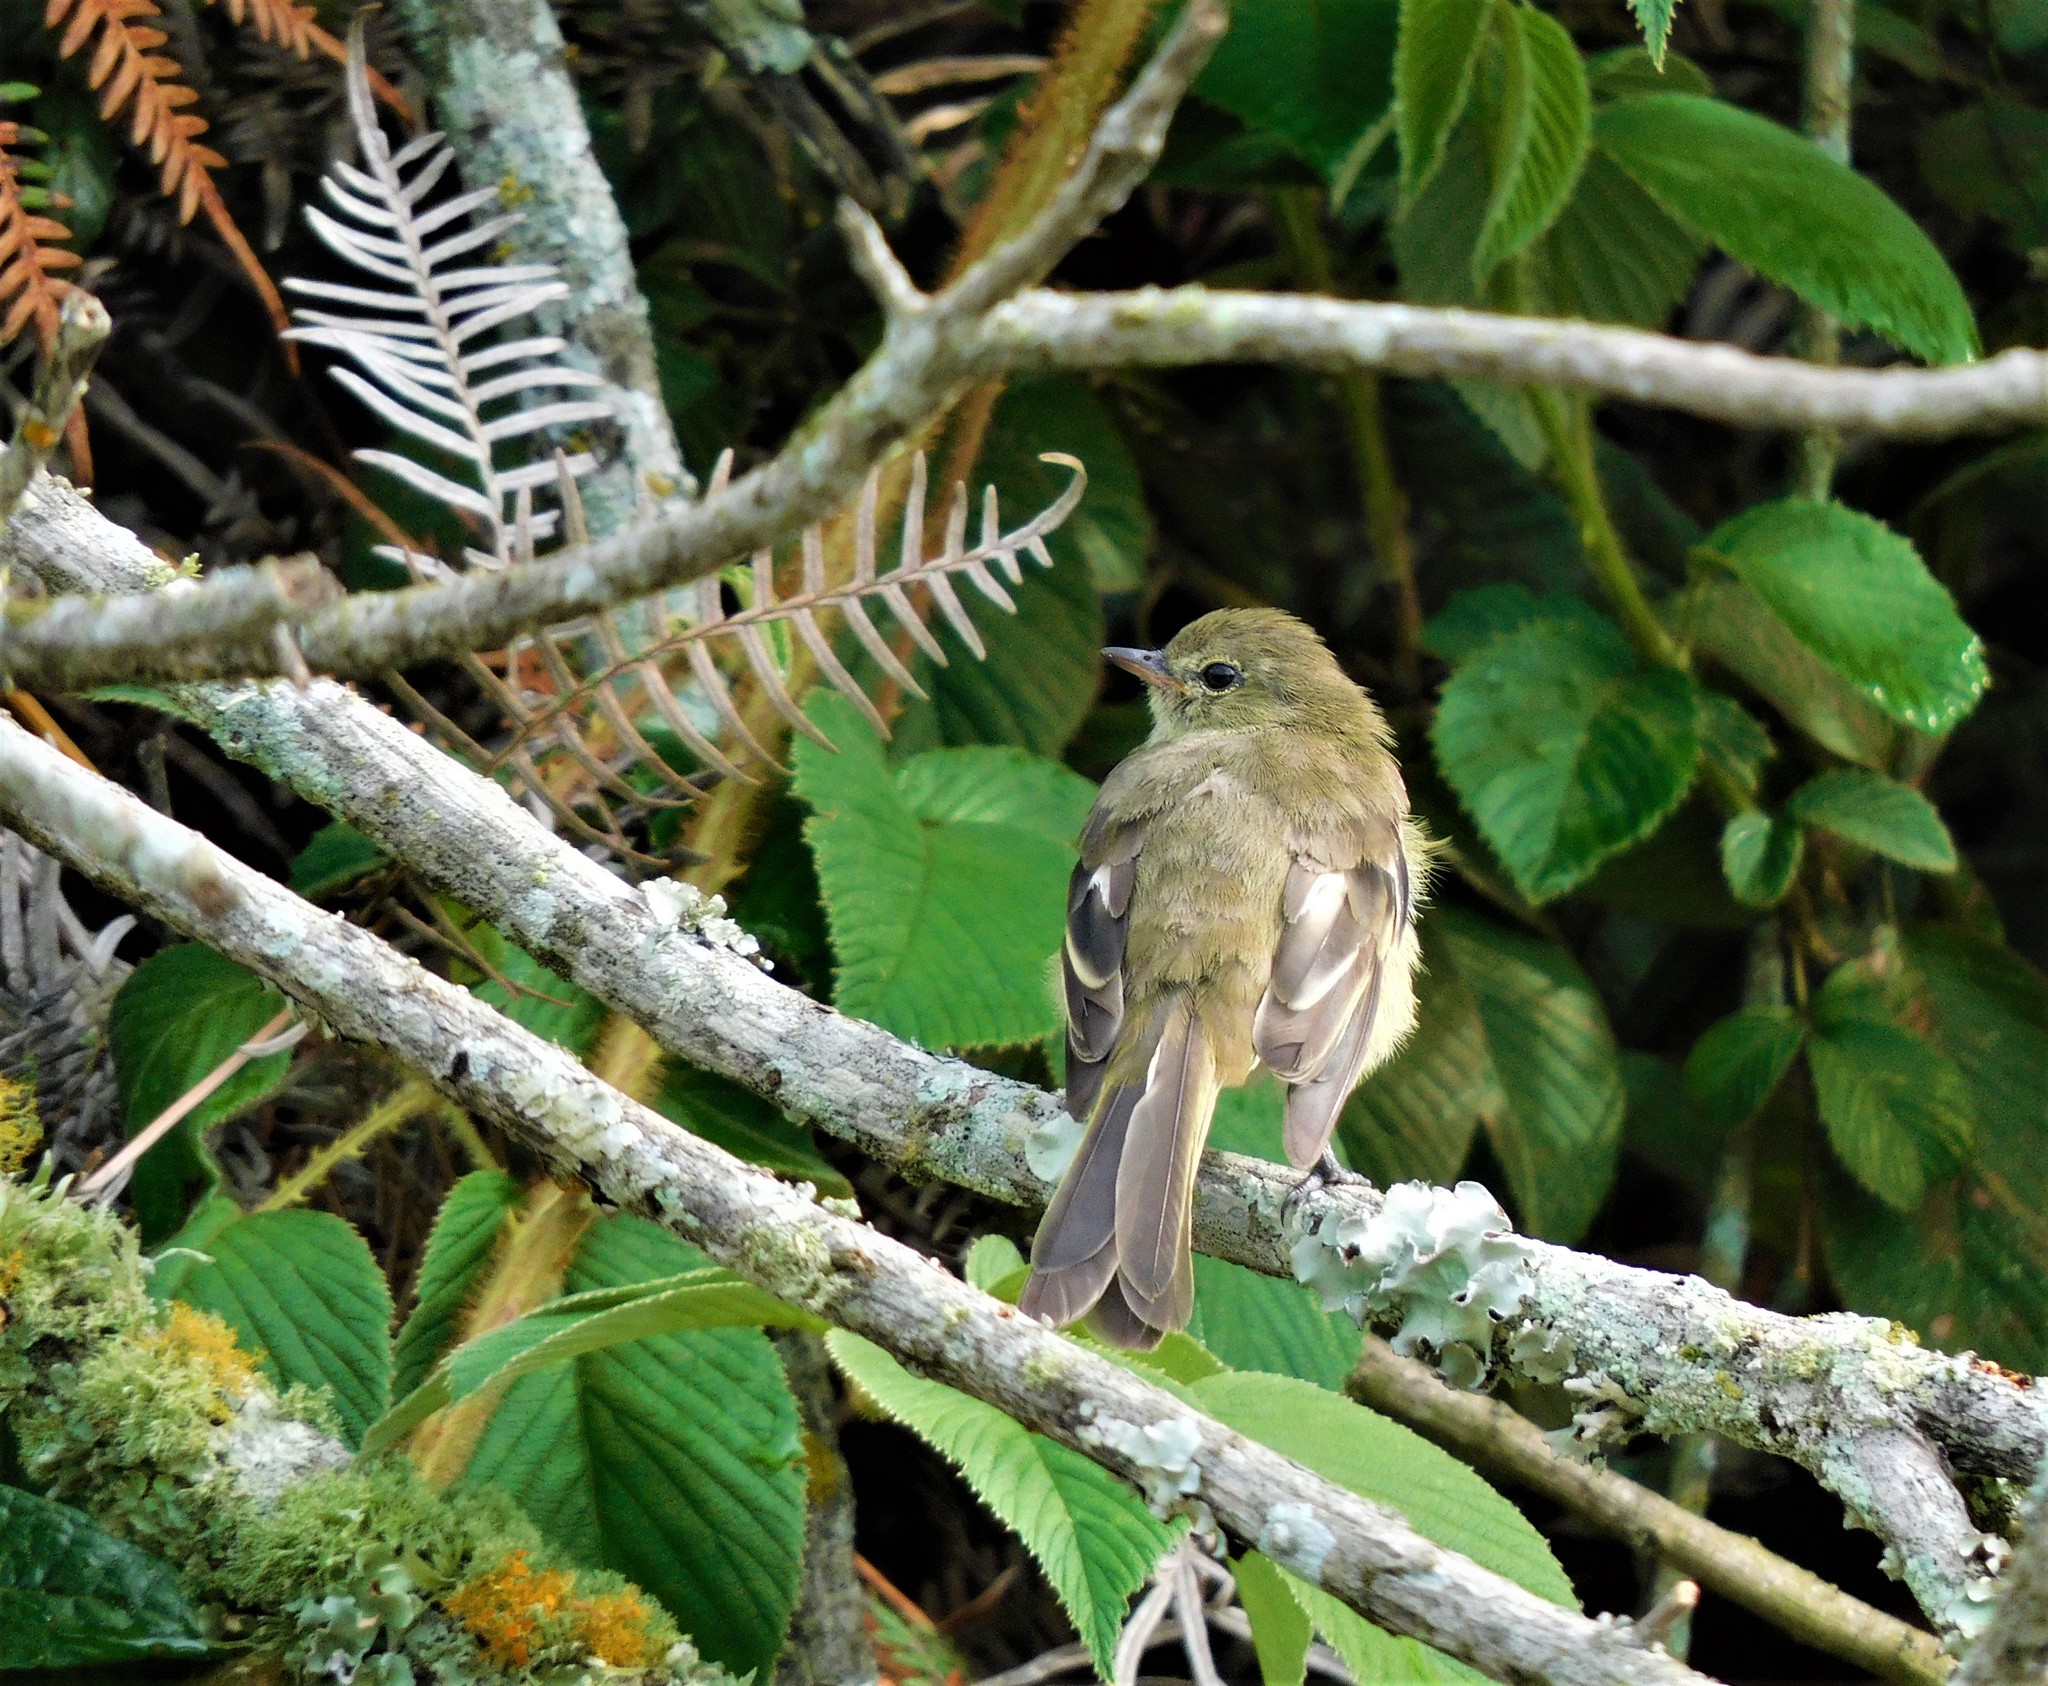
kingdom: Animalia
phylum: Chordata
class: Aves
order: Passeriformes
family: Tyrannidae
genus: Elaenia
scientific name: Elaenia frantzii
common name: Mountain elaenia
